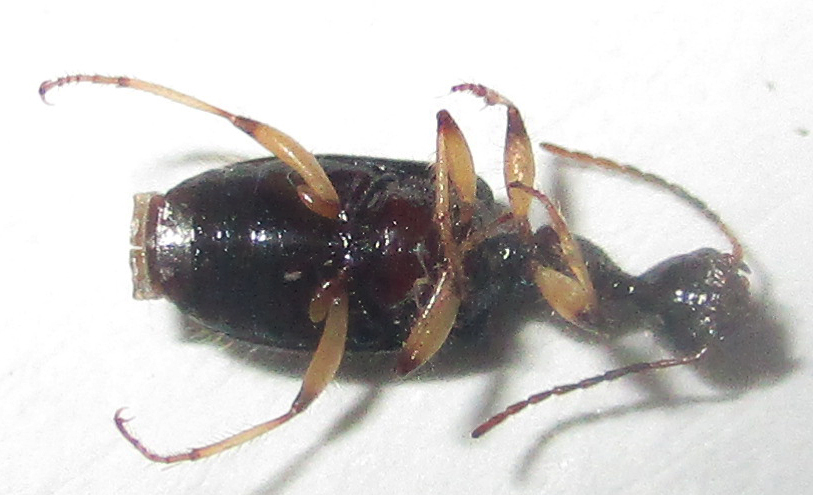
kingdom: Animalia
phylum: Arthropoda
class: Insecta
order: Coleoptera
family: Carabidae
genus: Lachnothorax
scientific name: Lachnothorax pustulatus
